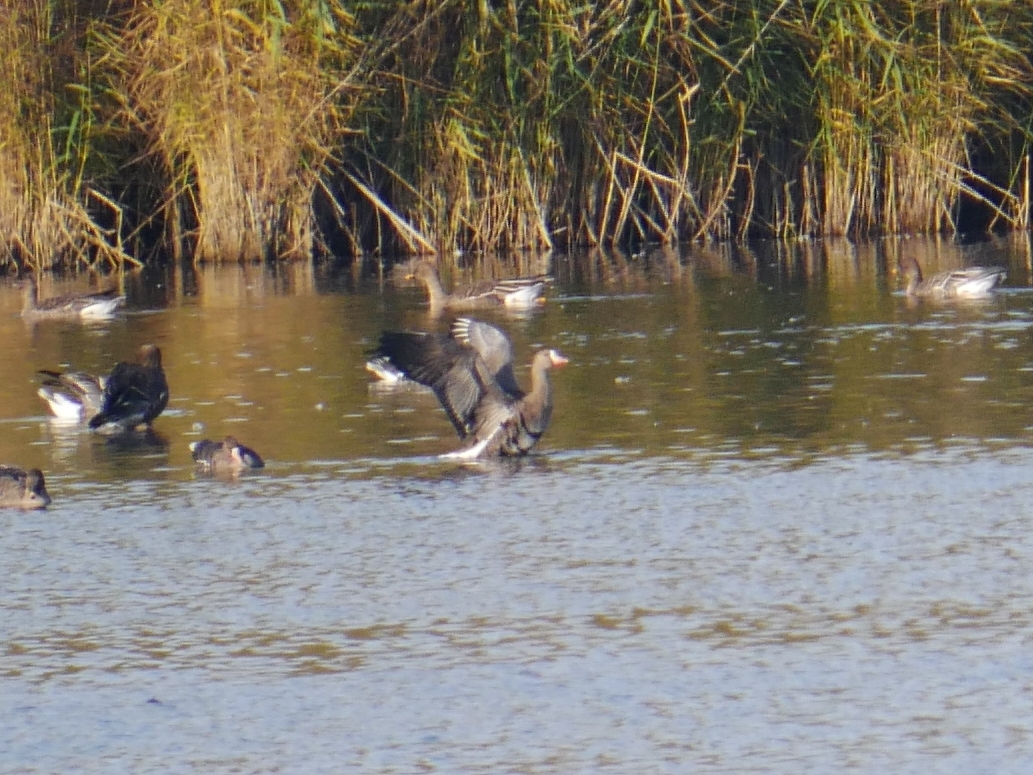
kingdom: Animalia
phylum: Chordata
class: Aves
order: Anseriformes
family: Anatidae
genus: Anser
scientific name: Anser albifrons
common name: Greater white-fronted goose
